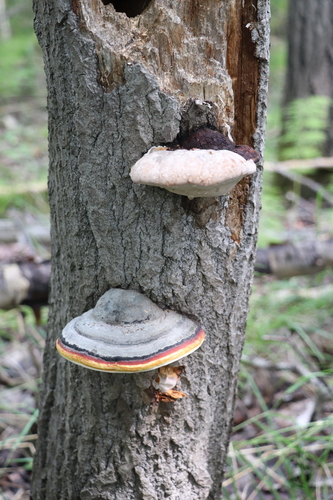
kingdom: Fungi
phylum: Basidiomycota
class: Agaricomycetes
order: Polyporales
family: Fomitopsidaceae
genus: Fomitopsis
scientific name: Fomitopsis pinicola
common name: Red-belted bracket
